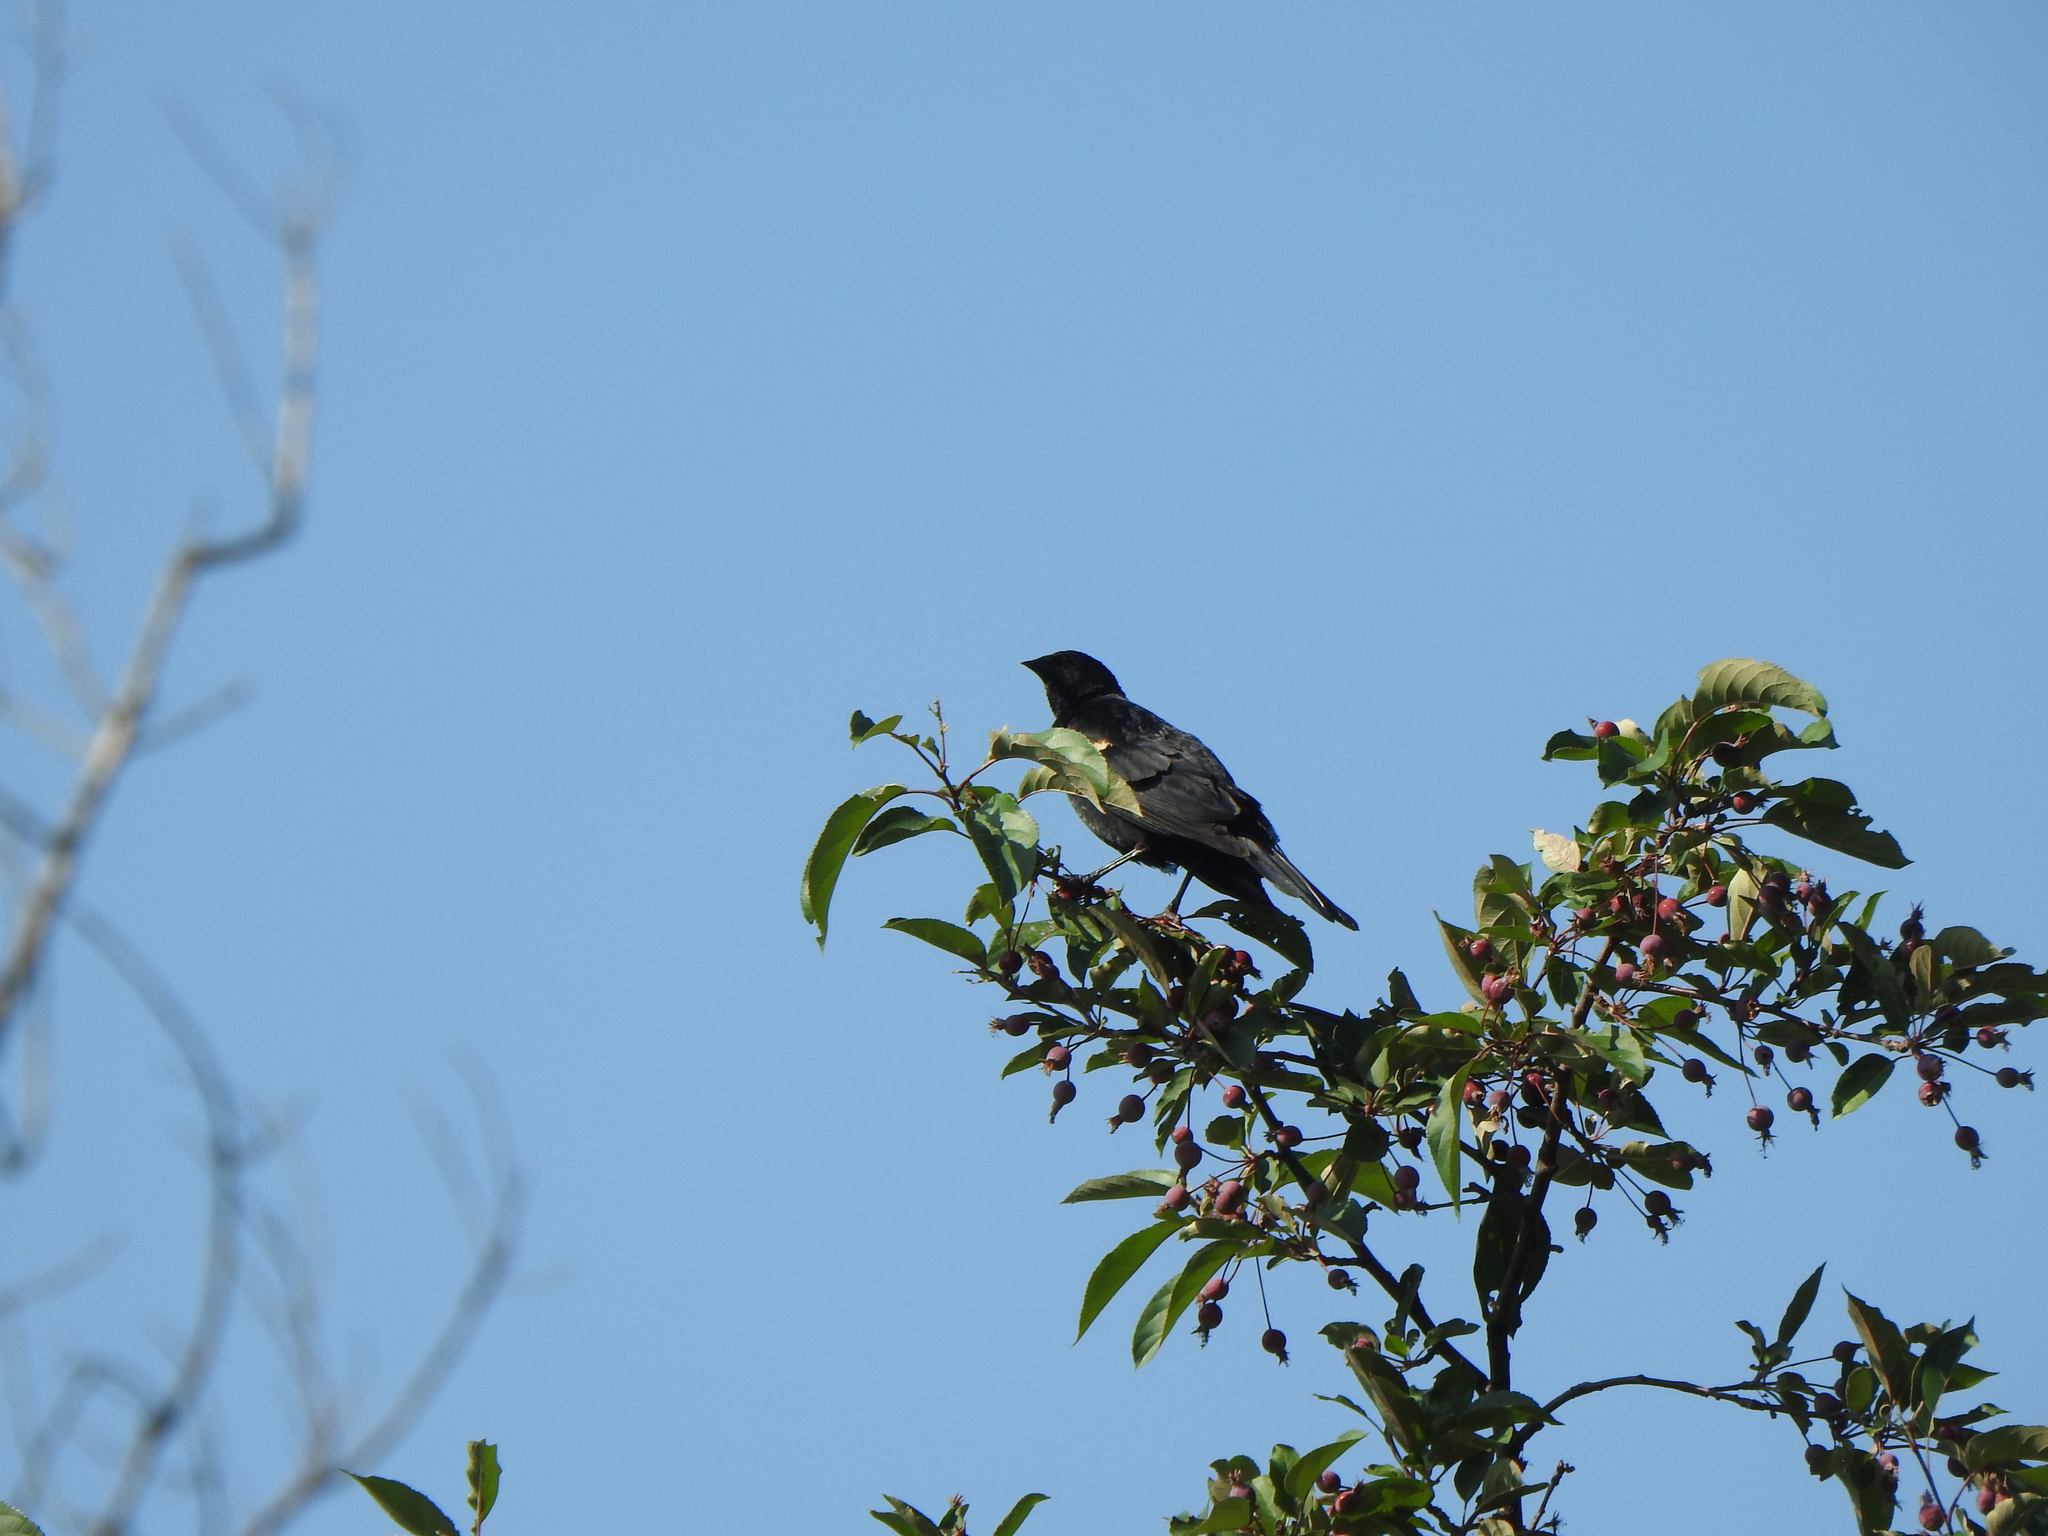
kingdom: Animalia
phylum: Chordata
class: Aves
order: Passeriformes
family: Icteridae
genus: Agelaius
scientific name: Agelaius phoeniceus
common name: Red-winged blackbird
